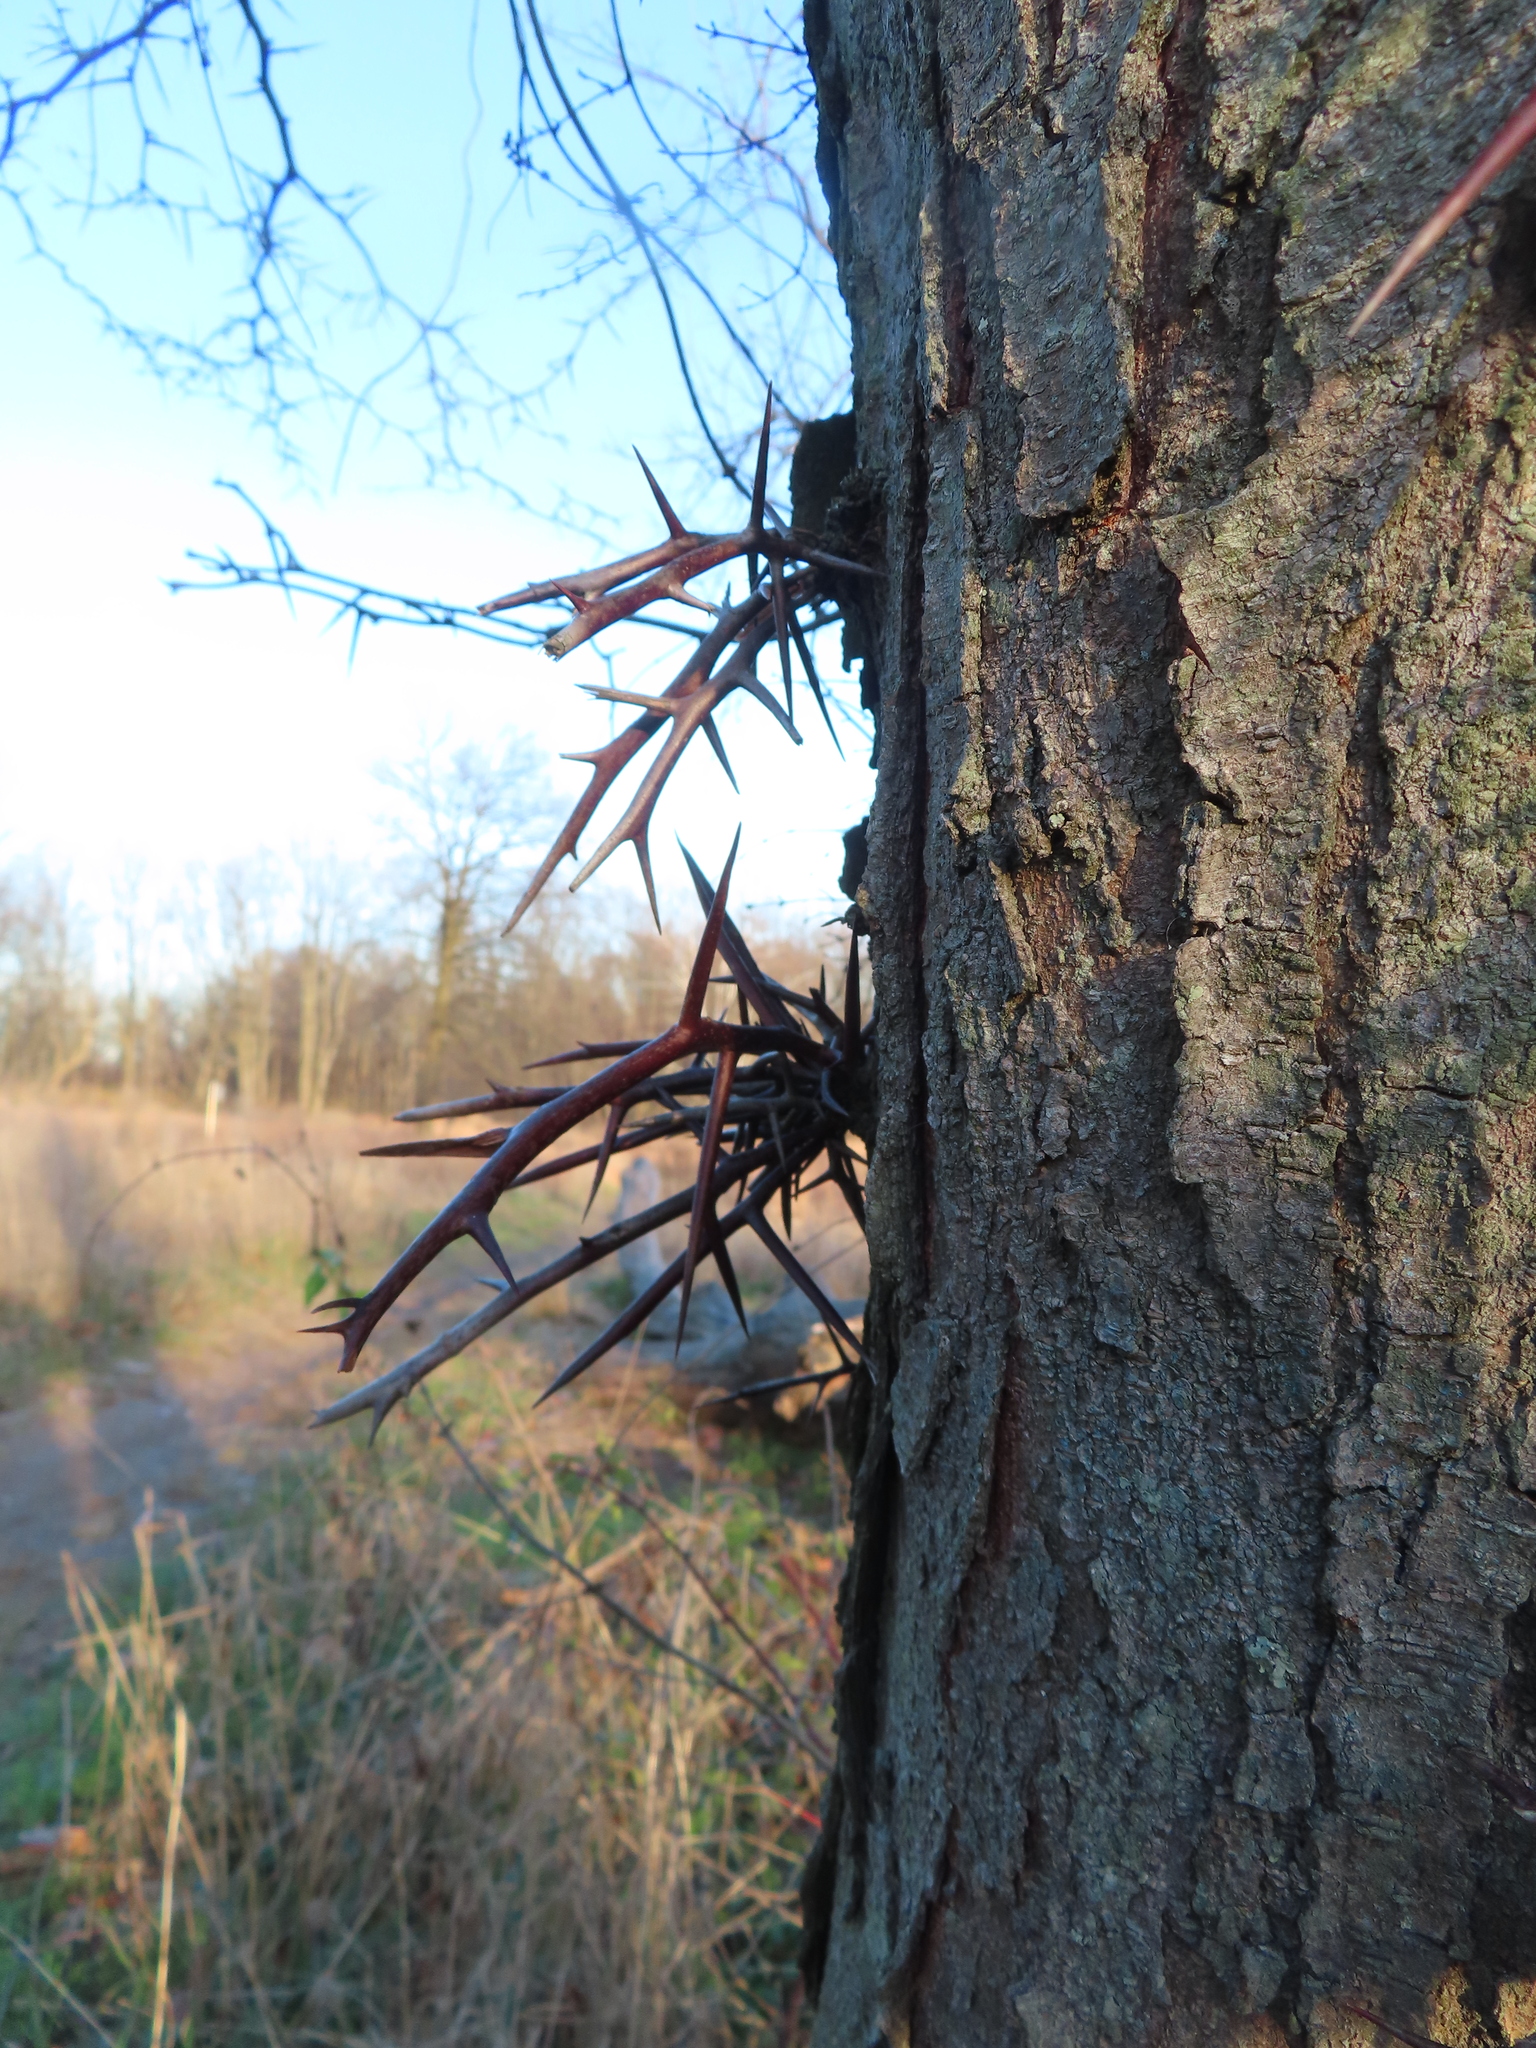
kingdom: Plantae
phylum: Tracheophyta
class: Magnoliopsida
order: Fabales
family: Fabaceae
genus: Gleditsia
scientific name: Gleditsia triacanthos
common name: Common honeylocust
